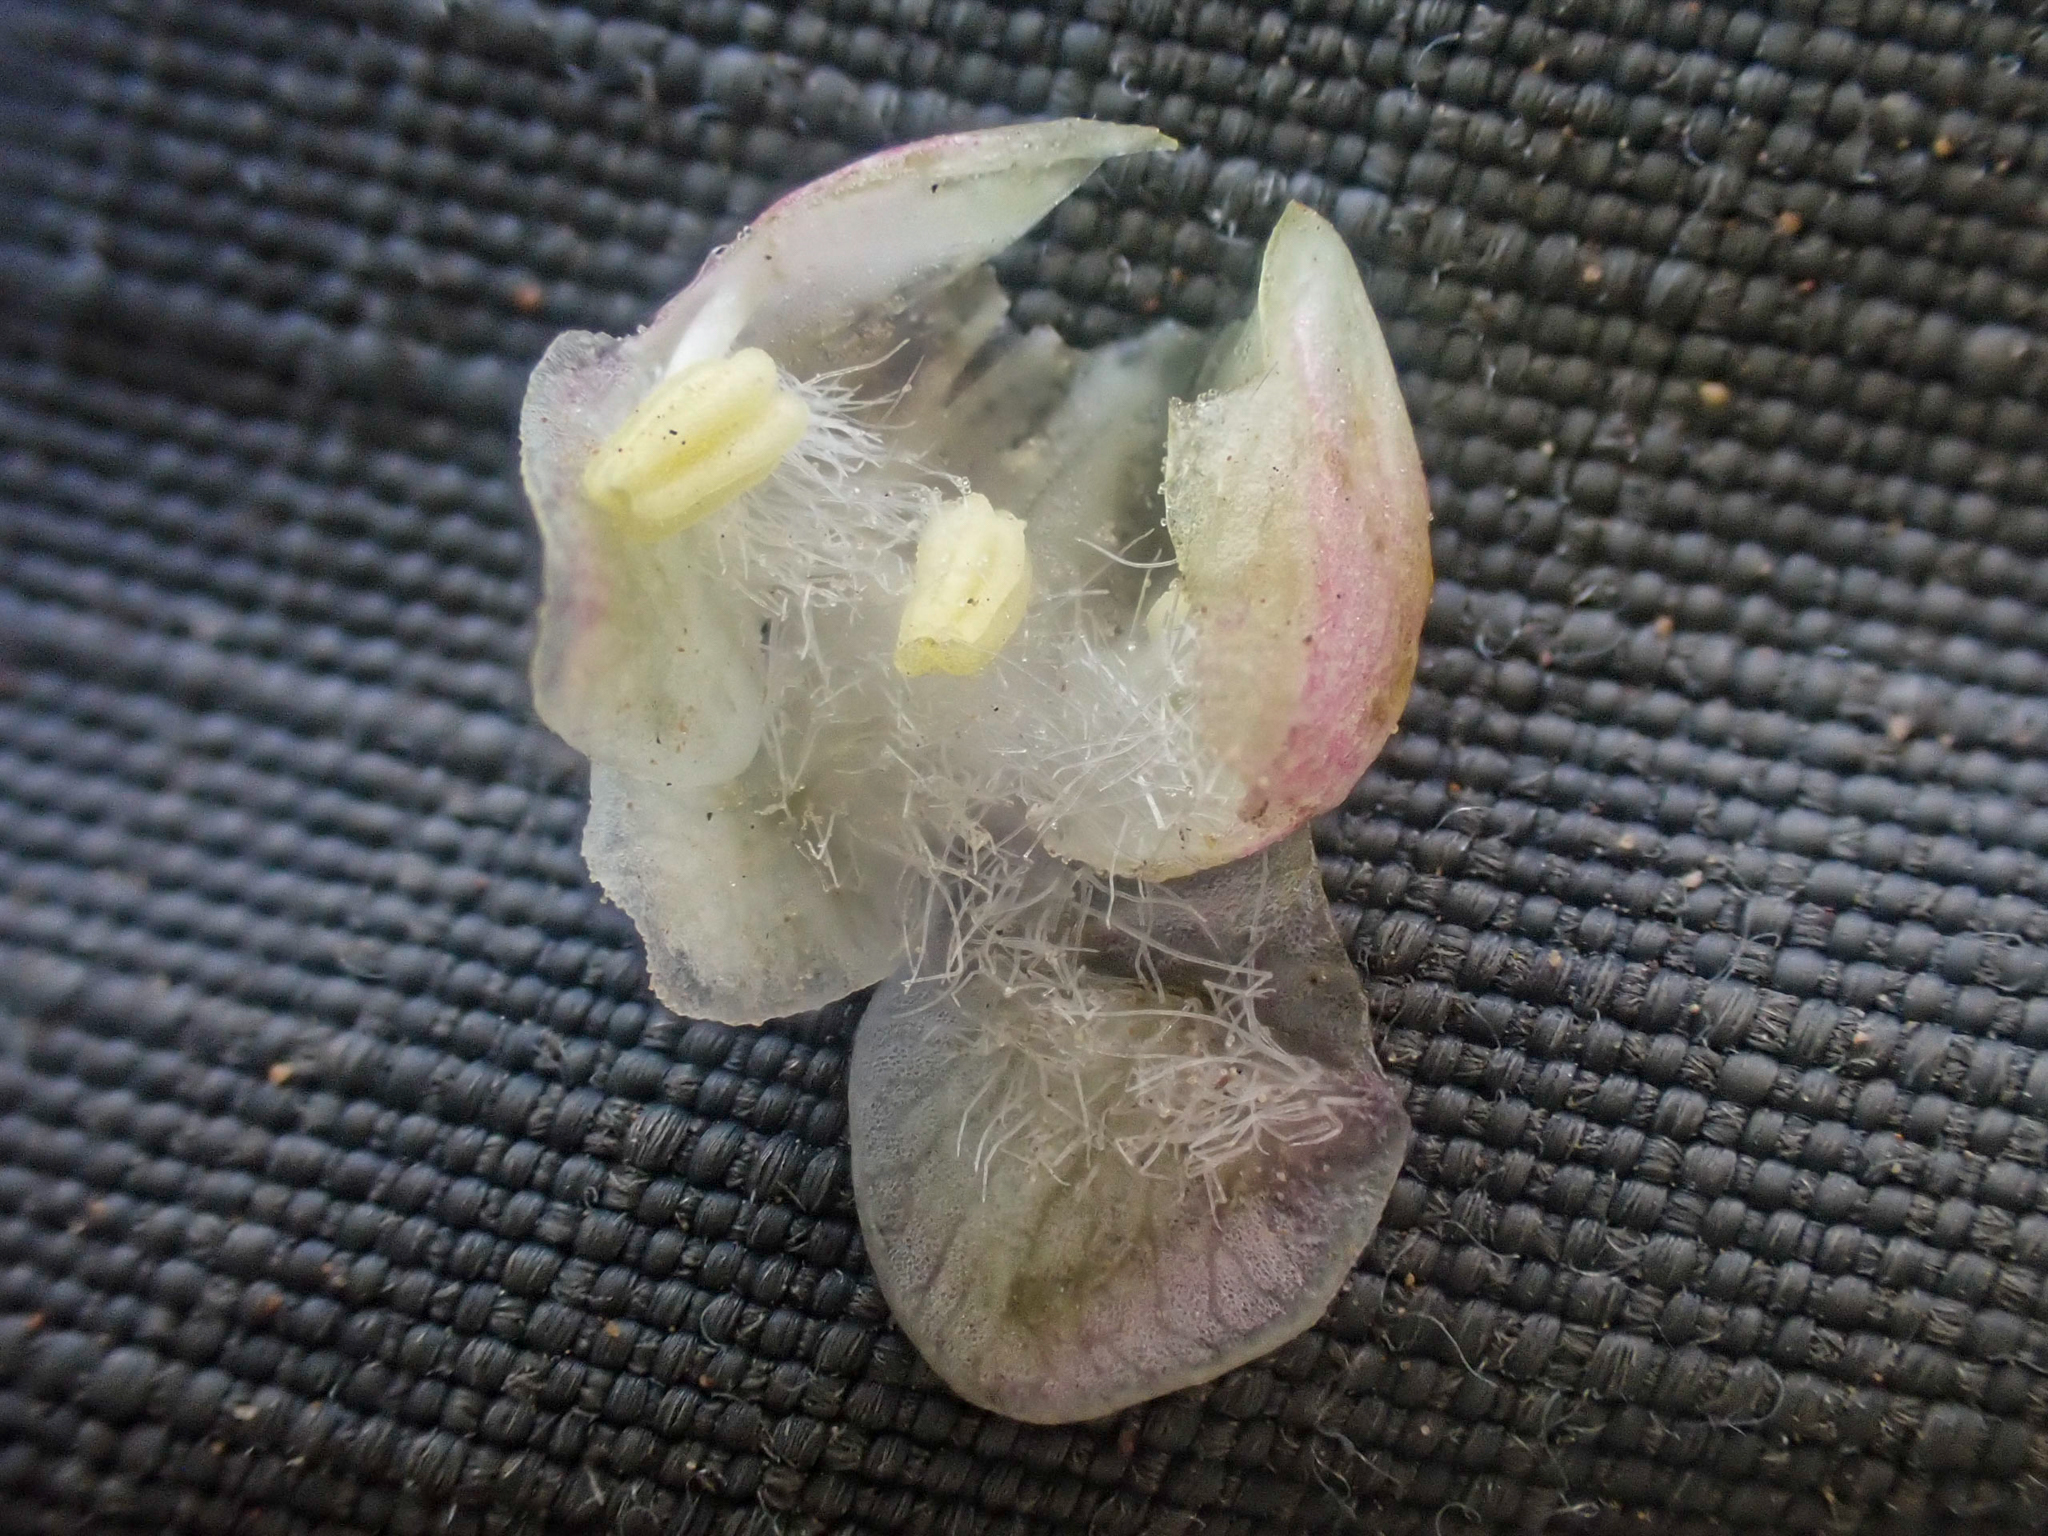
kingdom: Plantae
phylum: Tracheophyta
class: Magnoliopsida
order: Dipsacales
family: Caprifoliaceae
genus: Symphoricarpos
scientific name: Symphoricarpos albus
